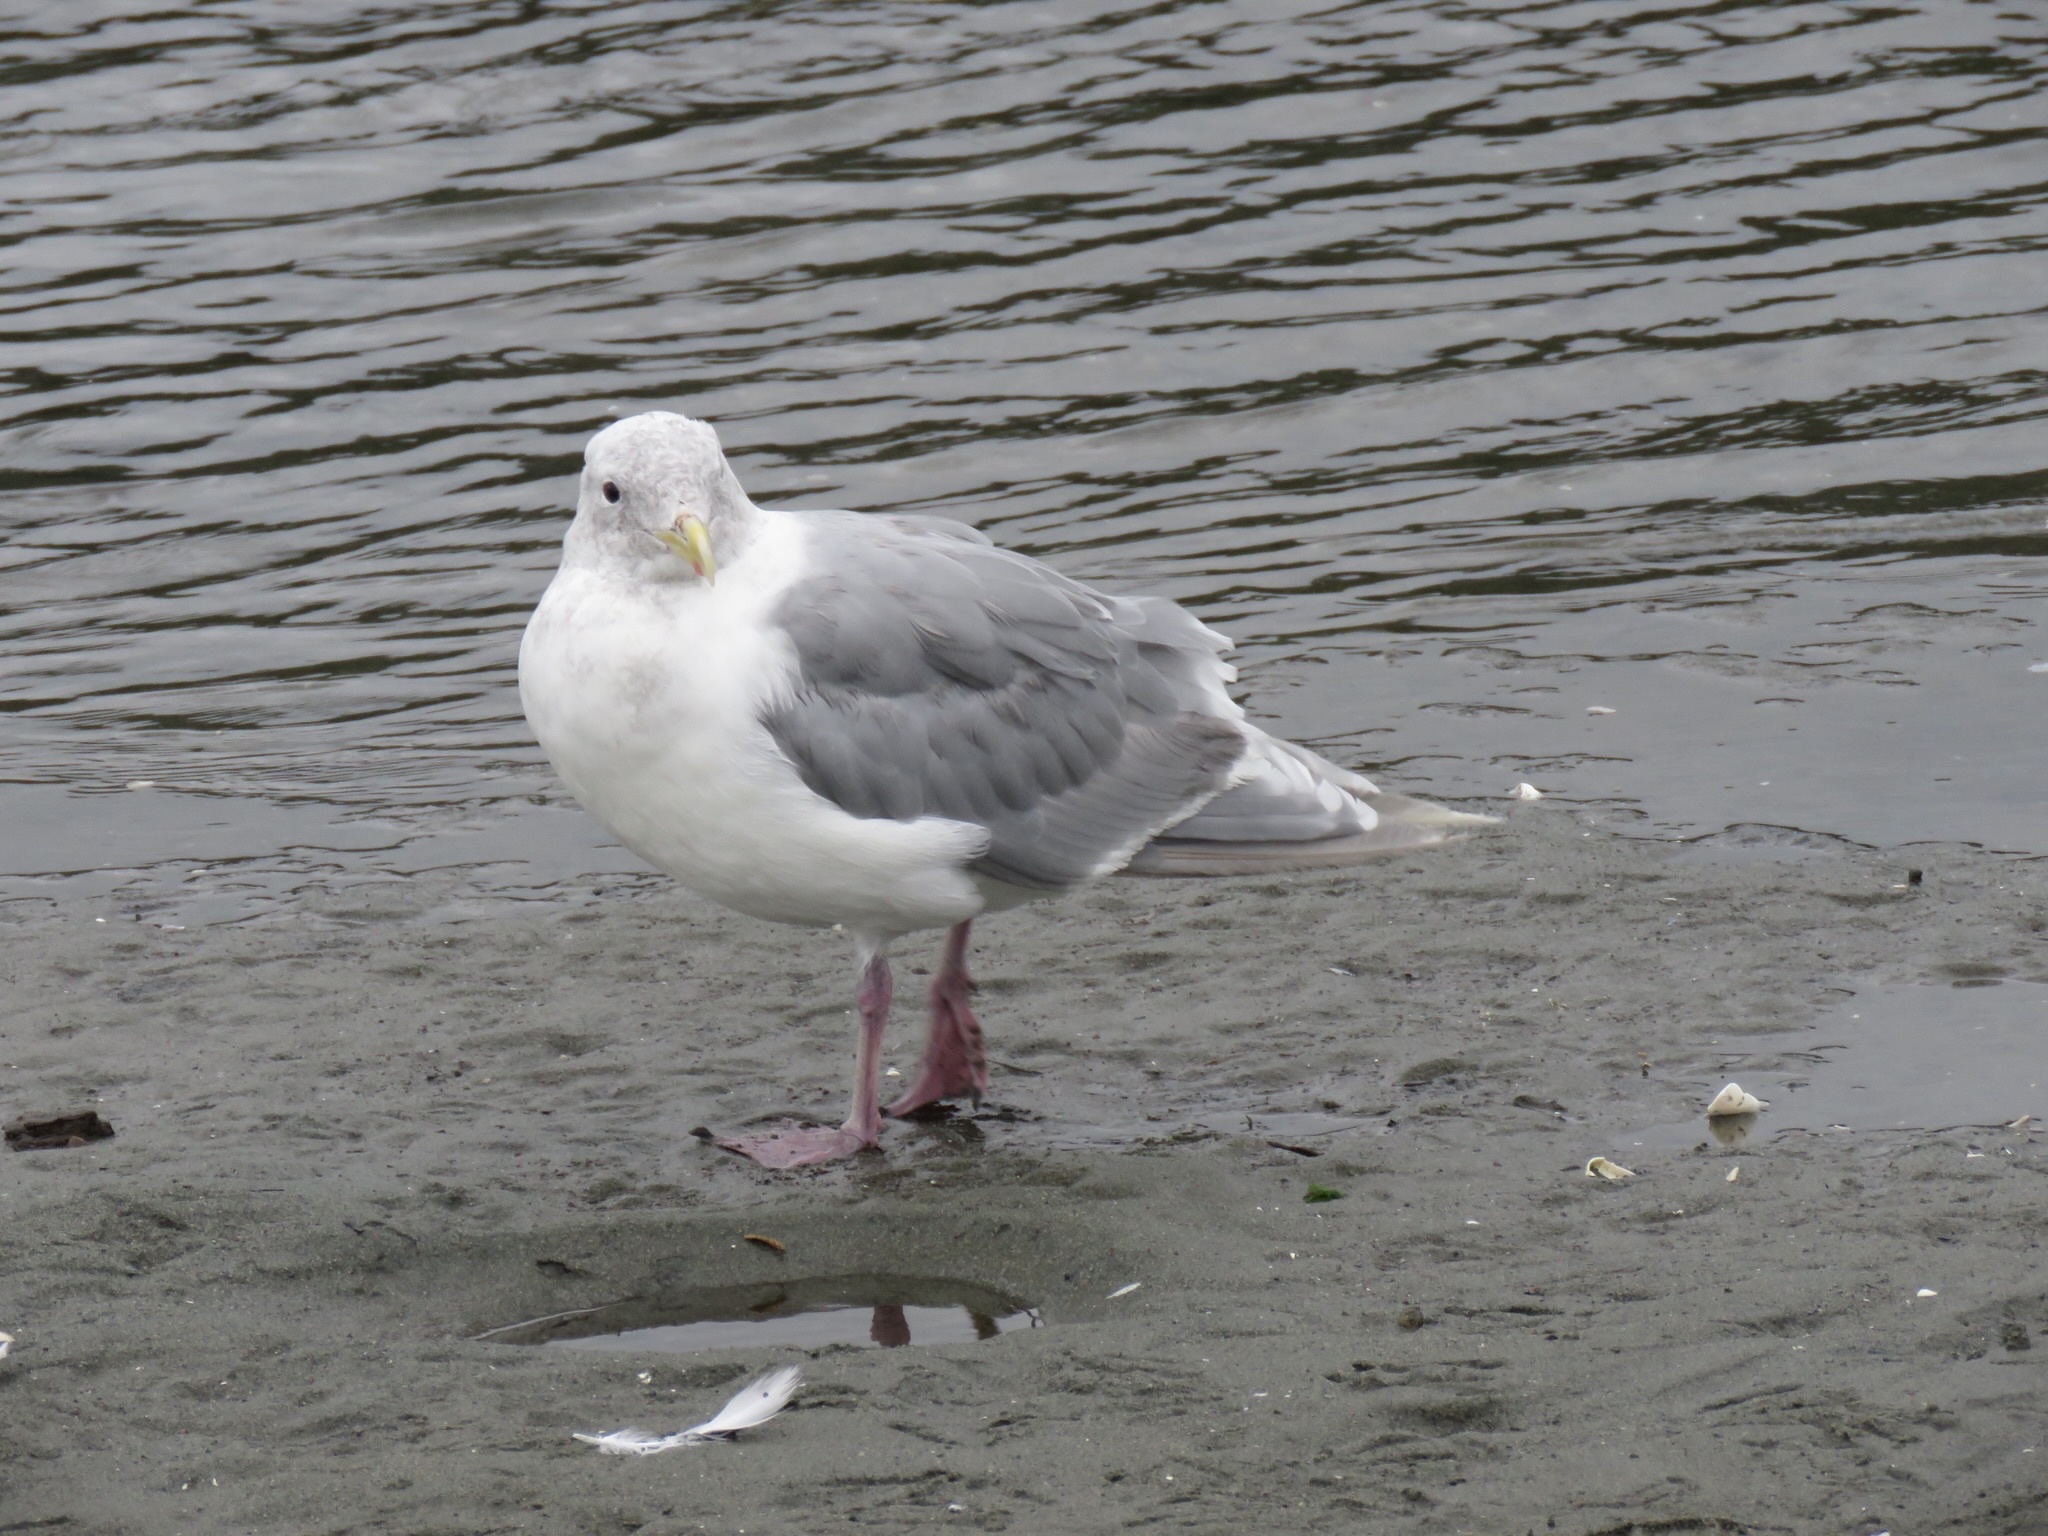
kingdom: Animalia
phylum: Chordata
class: Aves
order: Charadriiformes
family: Laridae
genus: Larus
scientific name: Larus glaucescens
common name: Glaucous-winged gull
